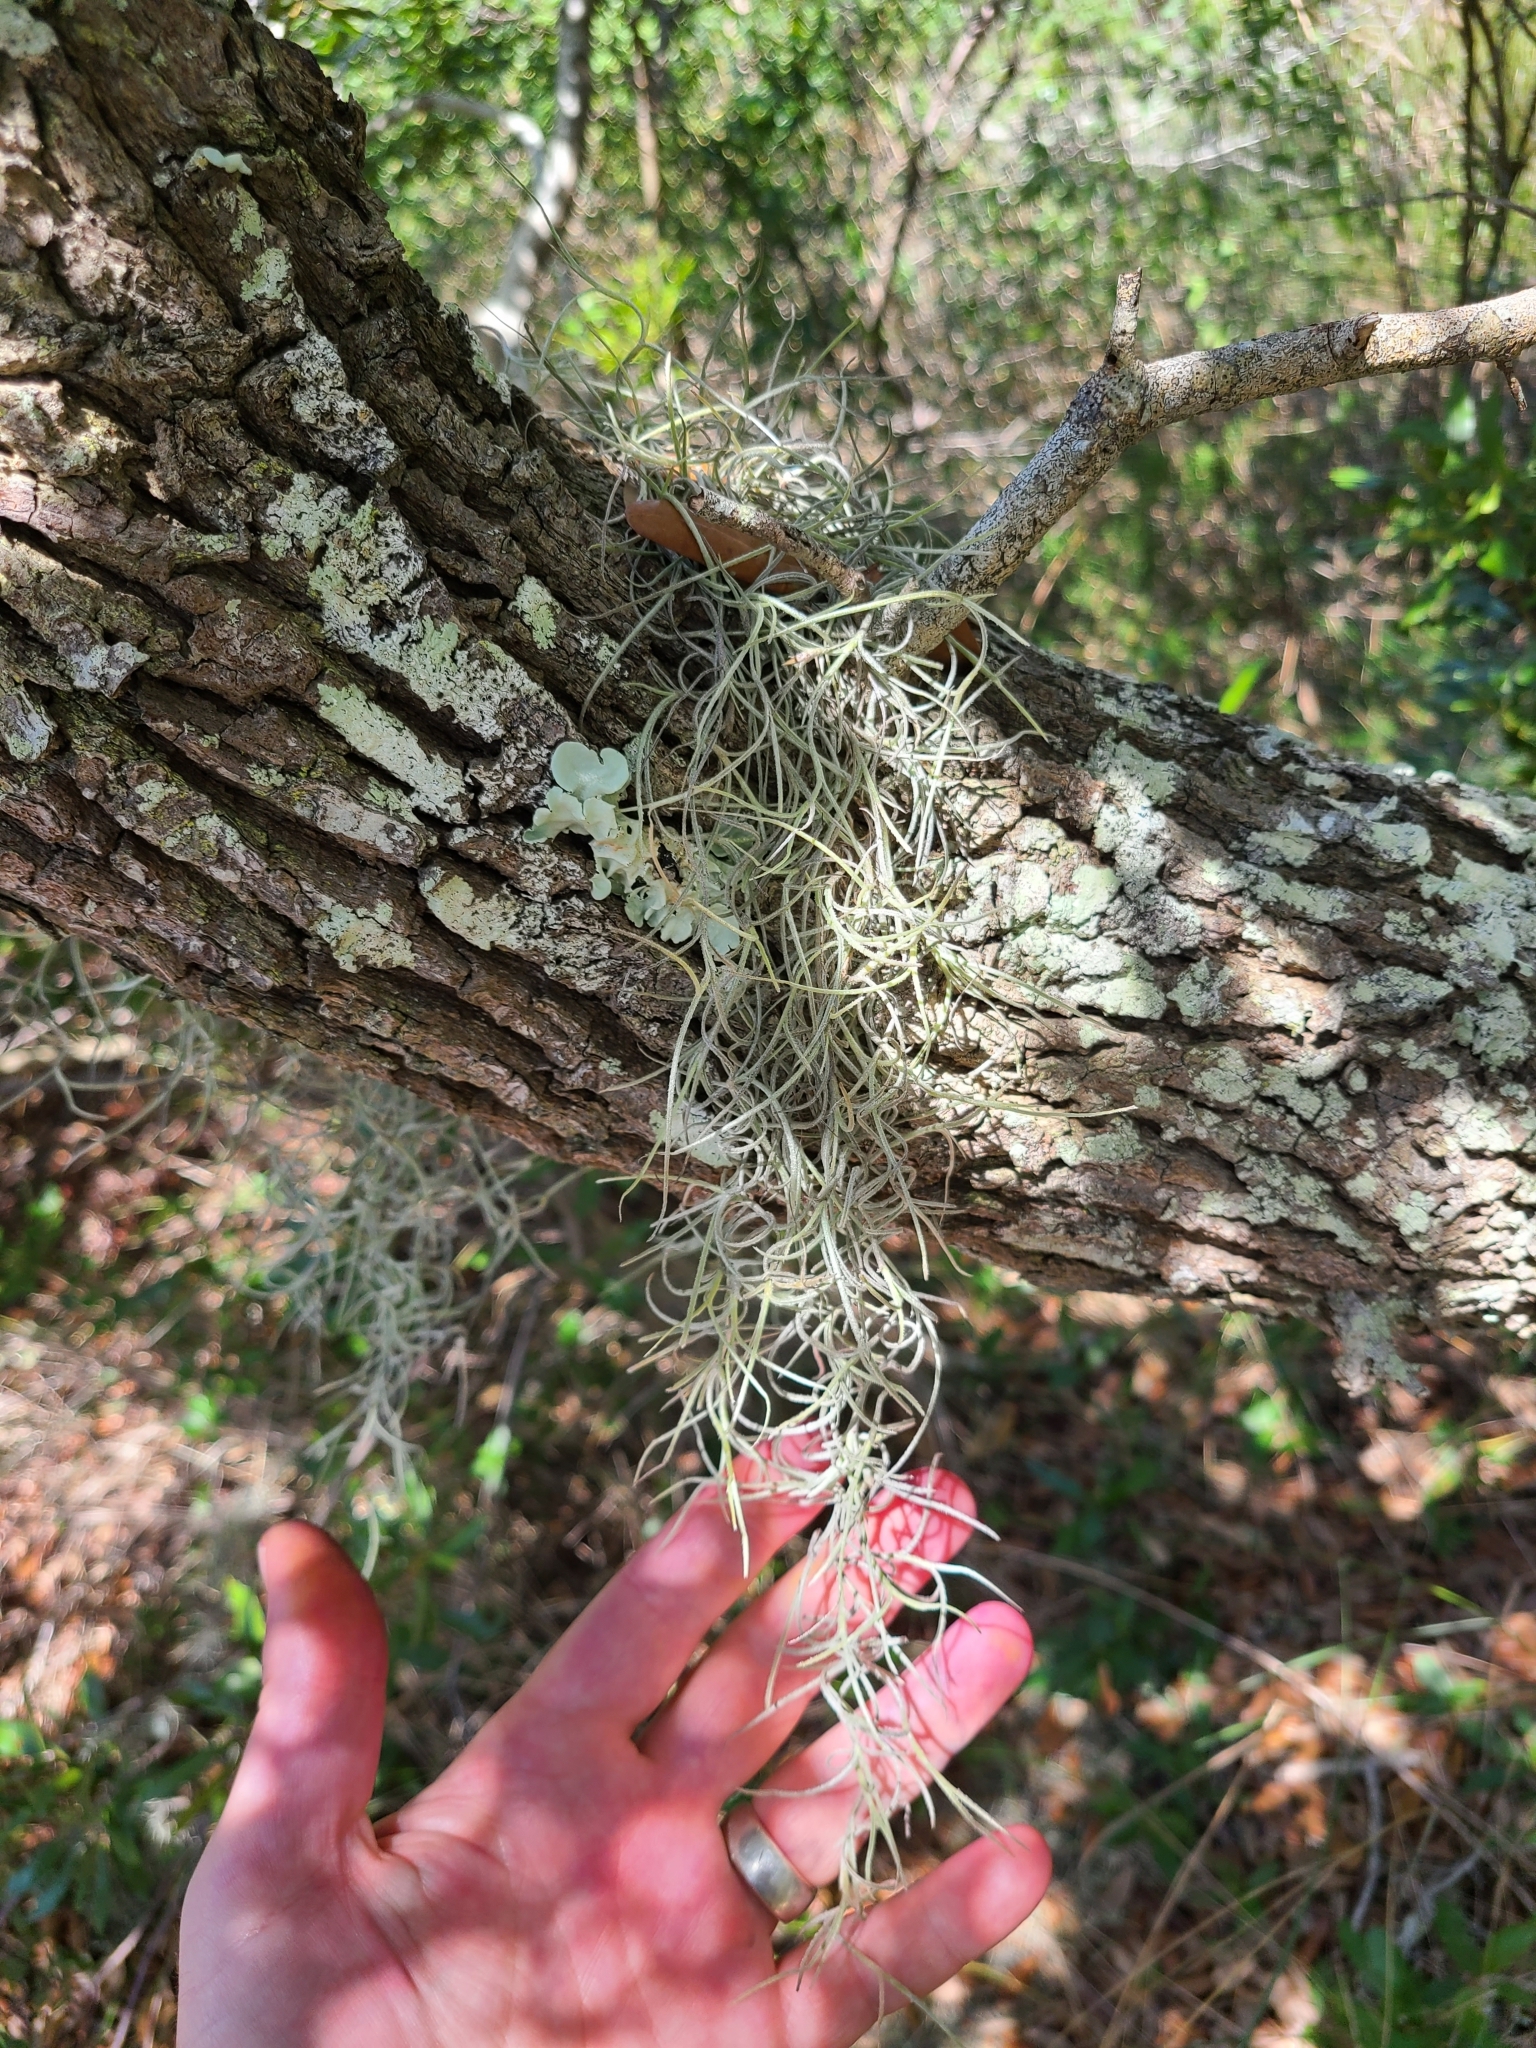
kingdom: Plantae
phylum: Tracheophyta
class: Liliopsida
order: Poales
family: Bromeliaceae
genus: Tillandsia
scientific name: Tillandsia usneoides
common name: Spanish moss
